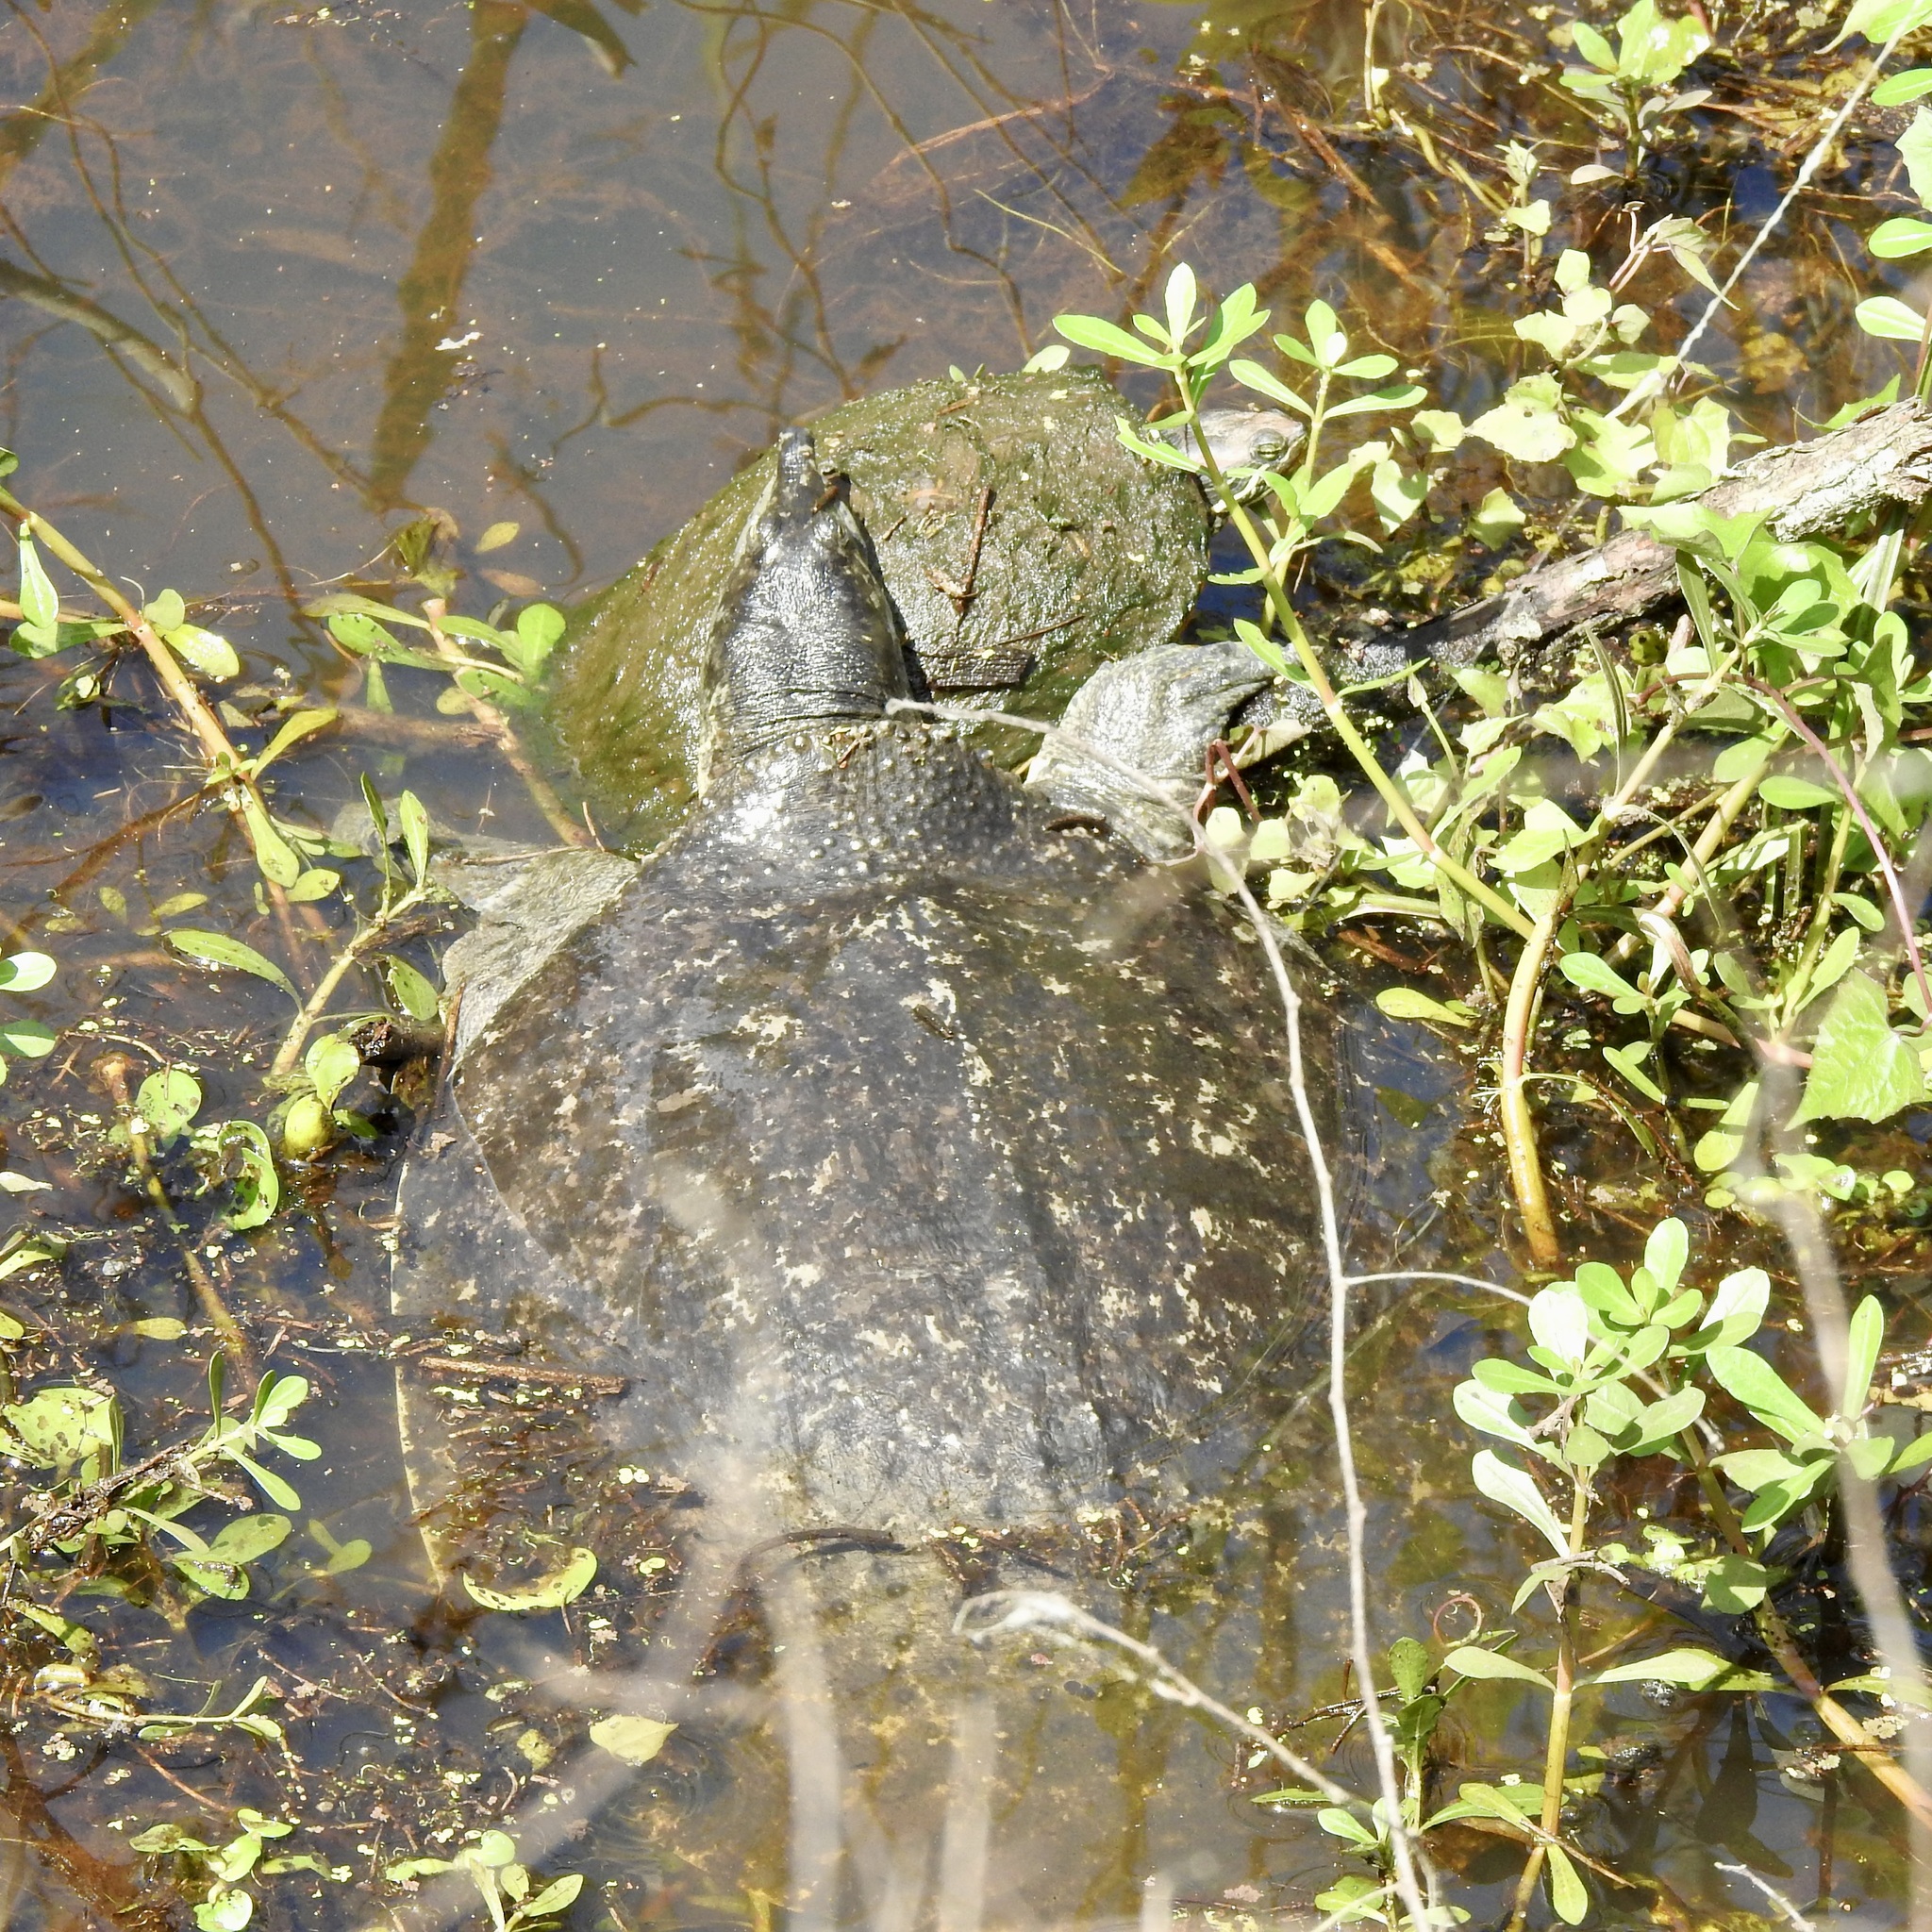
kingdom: Animalia
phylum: Chordata
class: Testudines
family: Trionychidae
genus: Apalone
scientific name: Apalone spinifera
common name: Spiny softshell turtle
